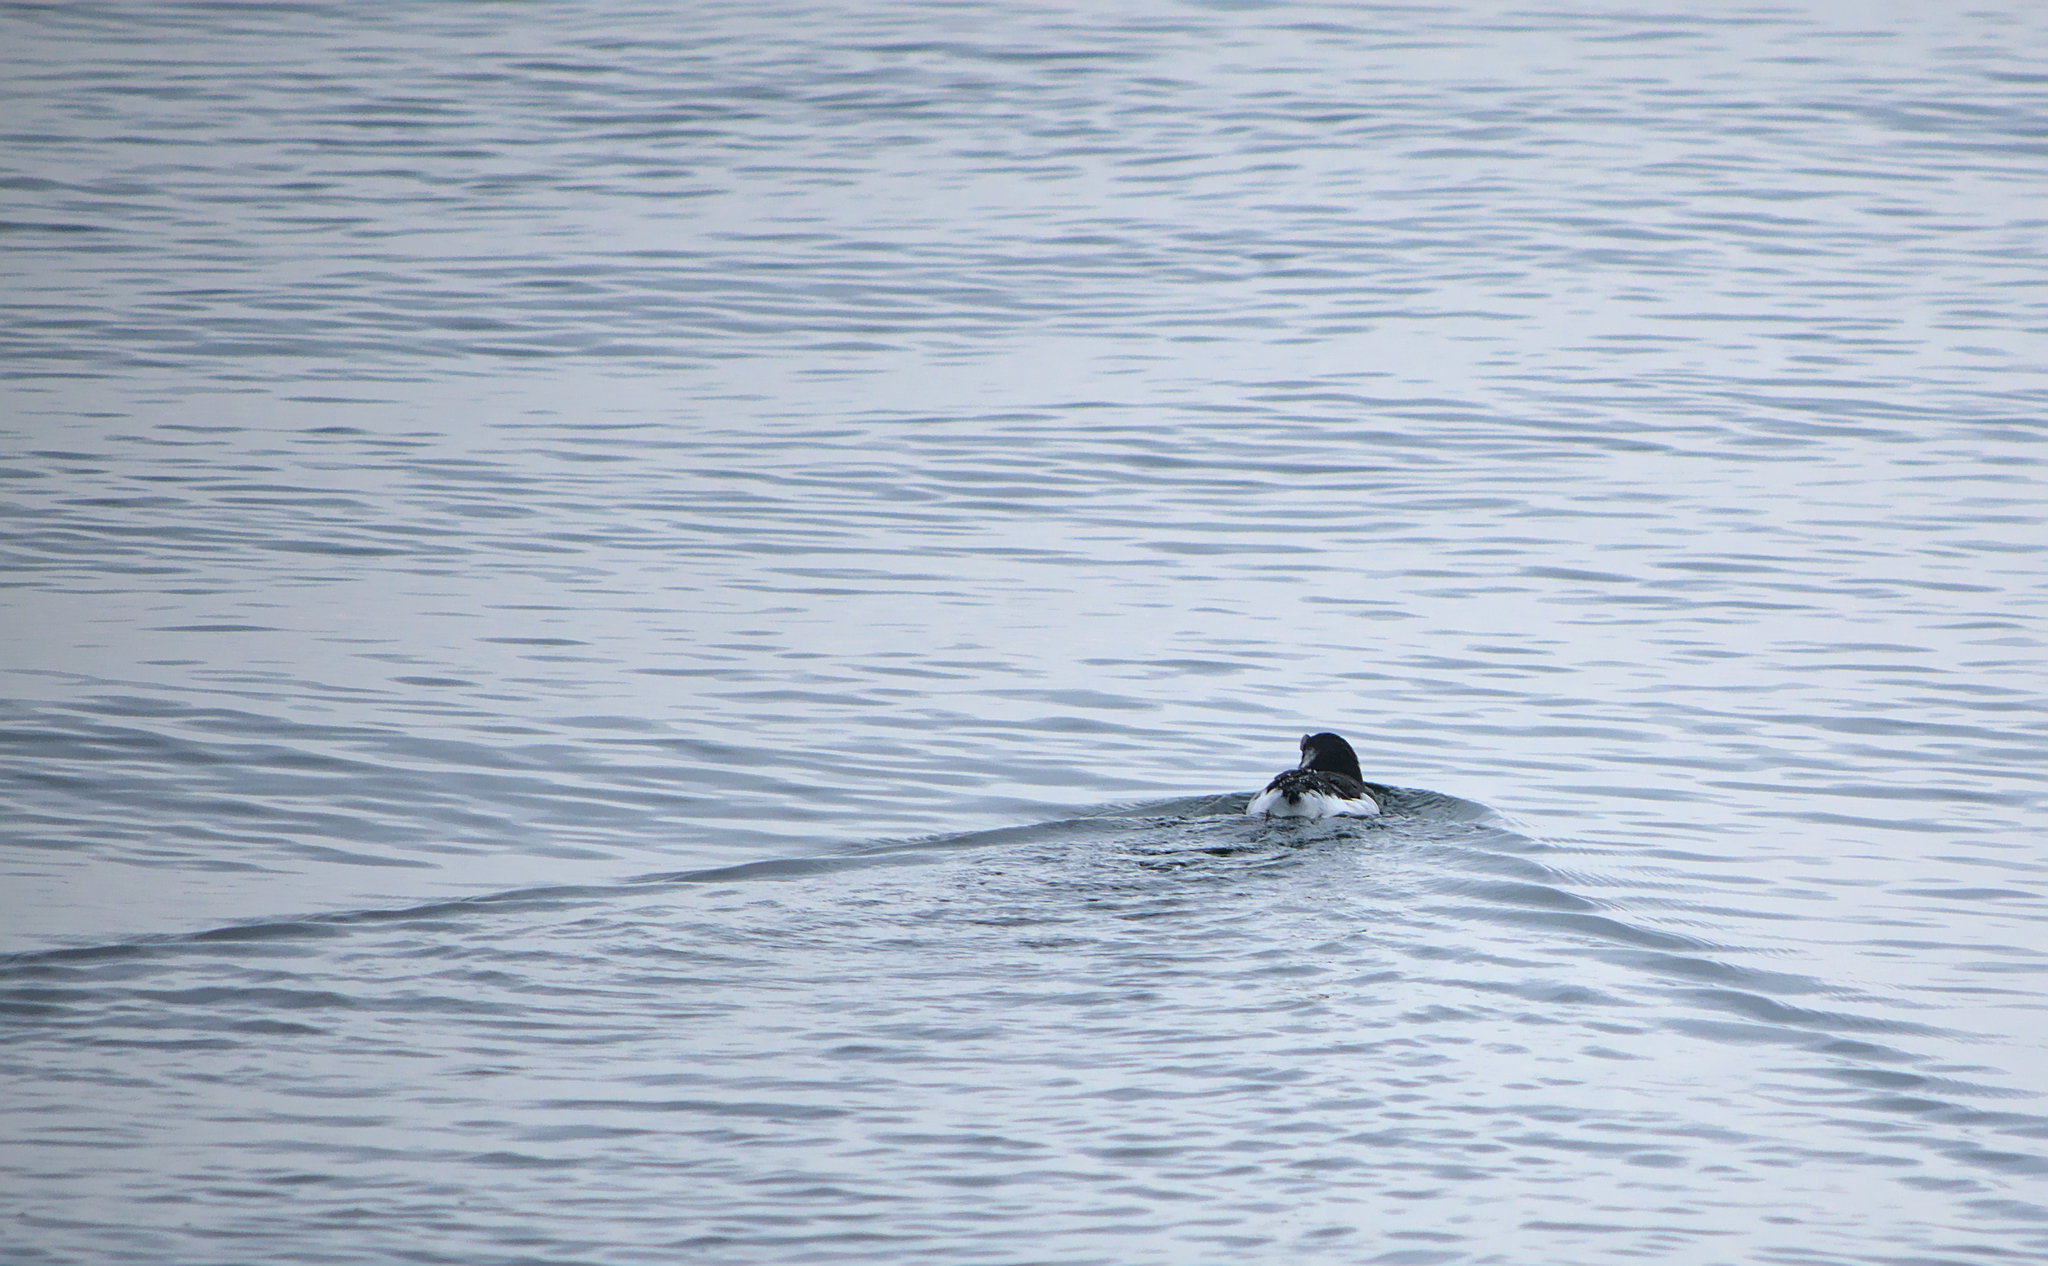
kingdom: Animalia
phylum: Chordata
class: Aves
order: Charadriiformes
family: Alcidae
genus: Alca
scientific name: Alca torda
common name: Razorbill
